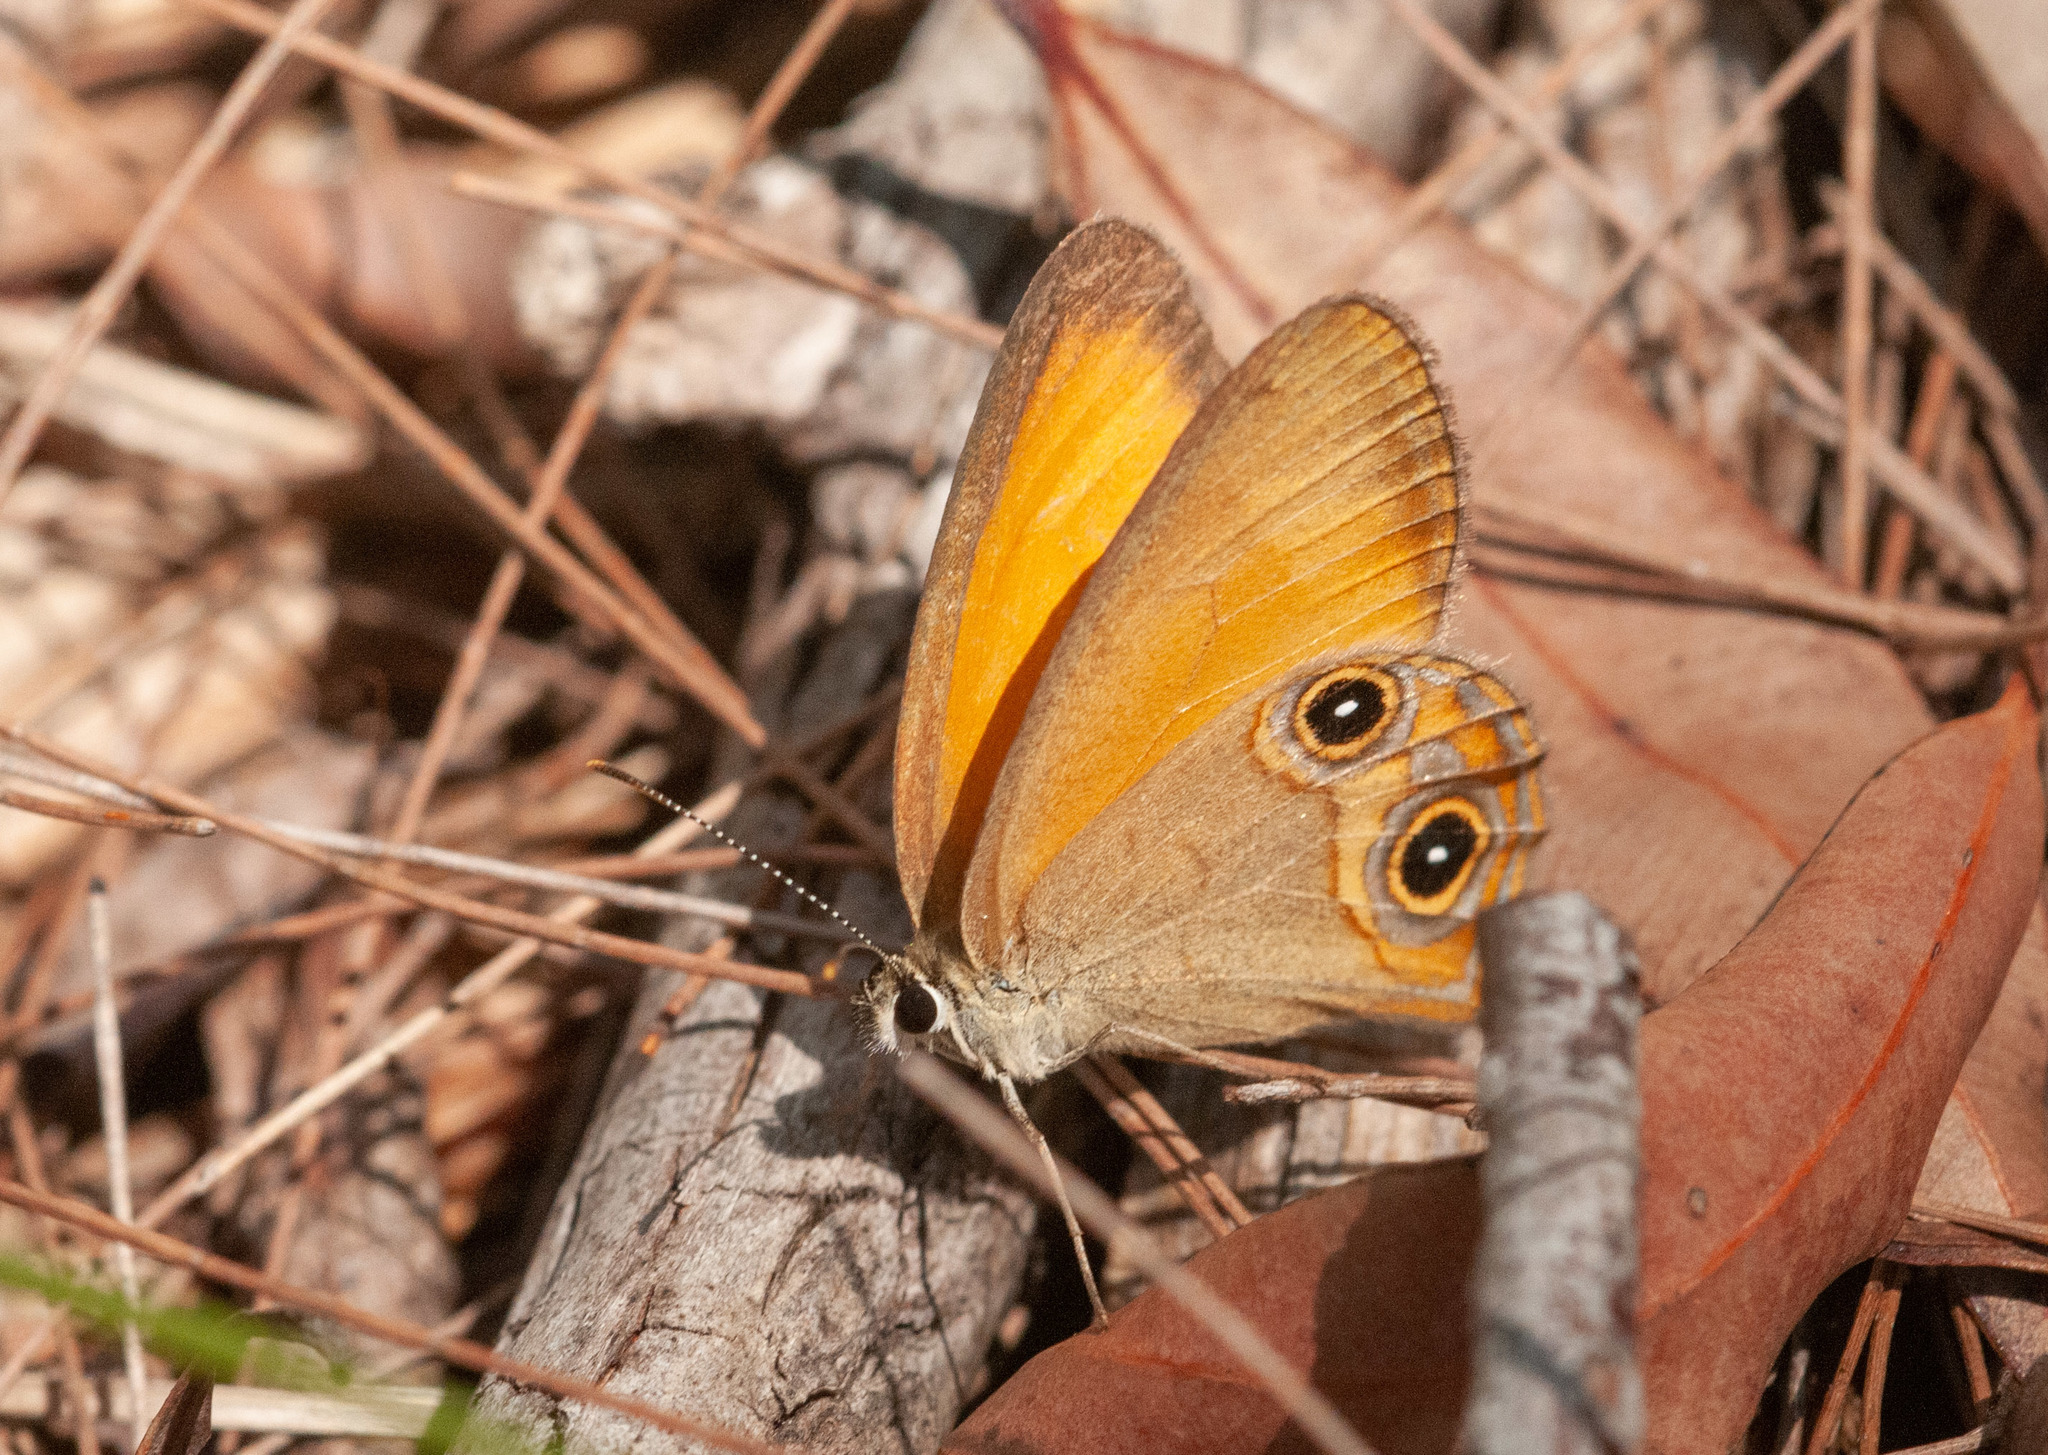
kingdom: Animalia
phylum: Arthropoda
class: Insecta
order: Lepidoptera
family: Nymphalidae
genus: Hypocysta
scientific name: Hypocysta adiante
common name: Orange ringlet
